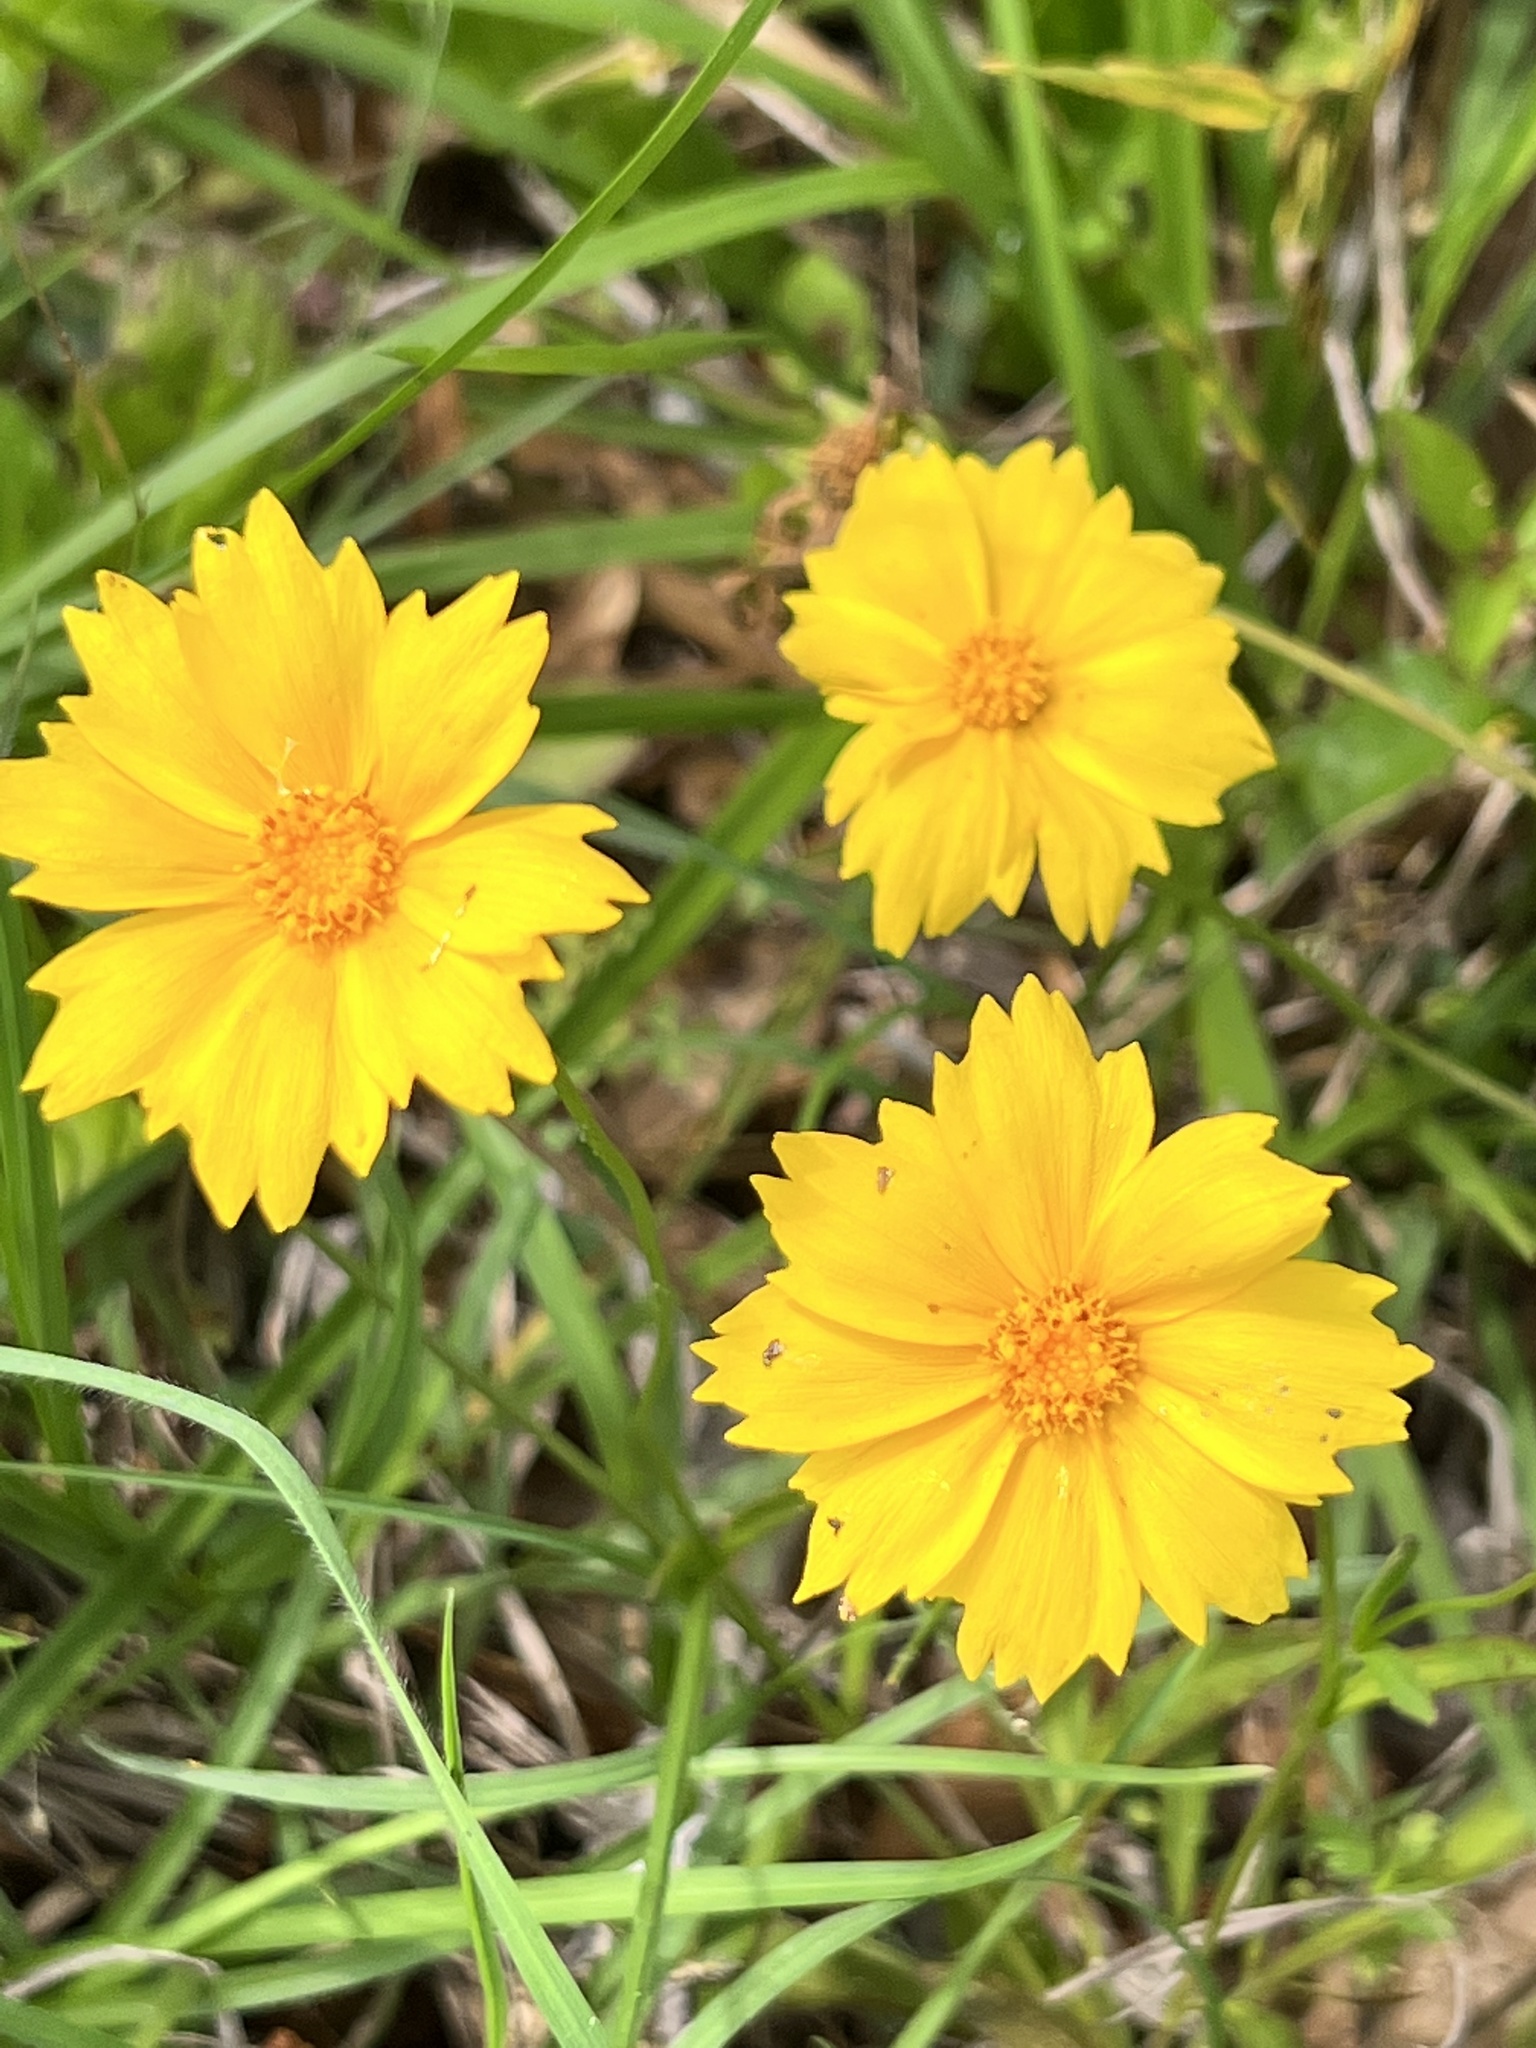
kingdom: Plantae
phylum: Tracheophyta
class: Magnoliopsida
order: Asterales
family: Asteraceae
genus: Coreopsis
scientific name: Coreopsis lanceolata
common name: Garden coreopsis
